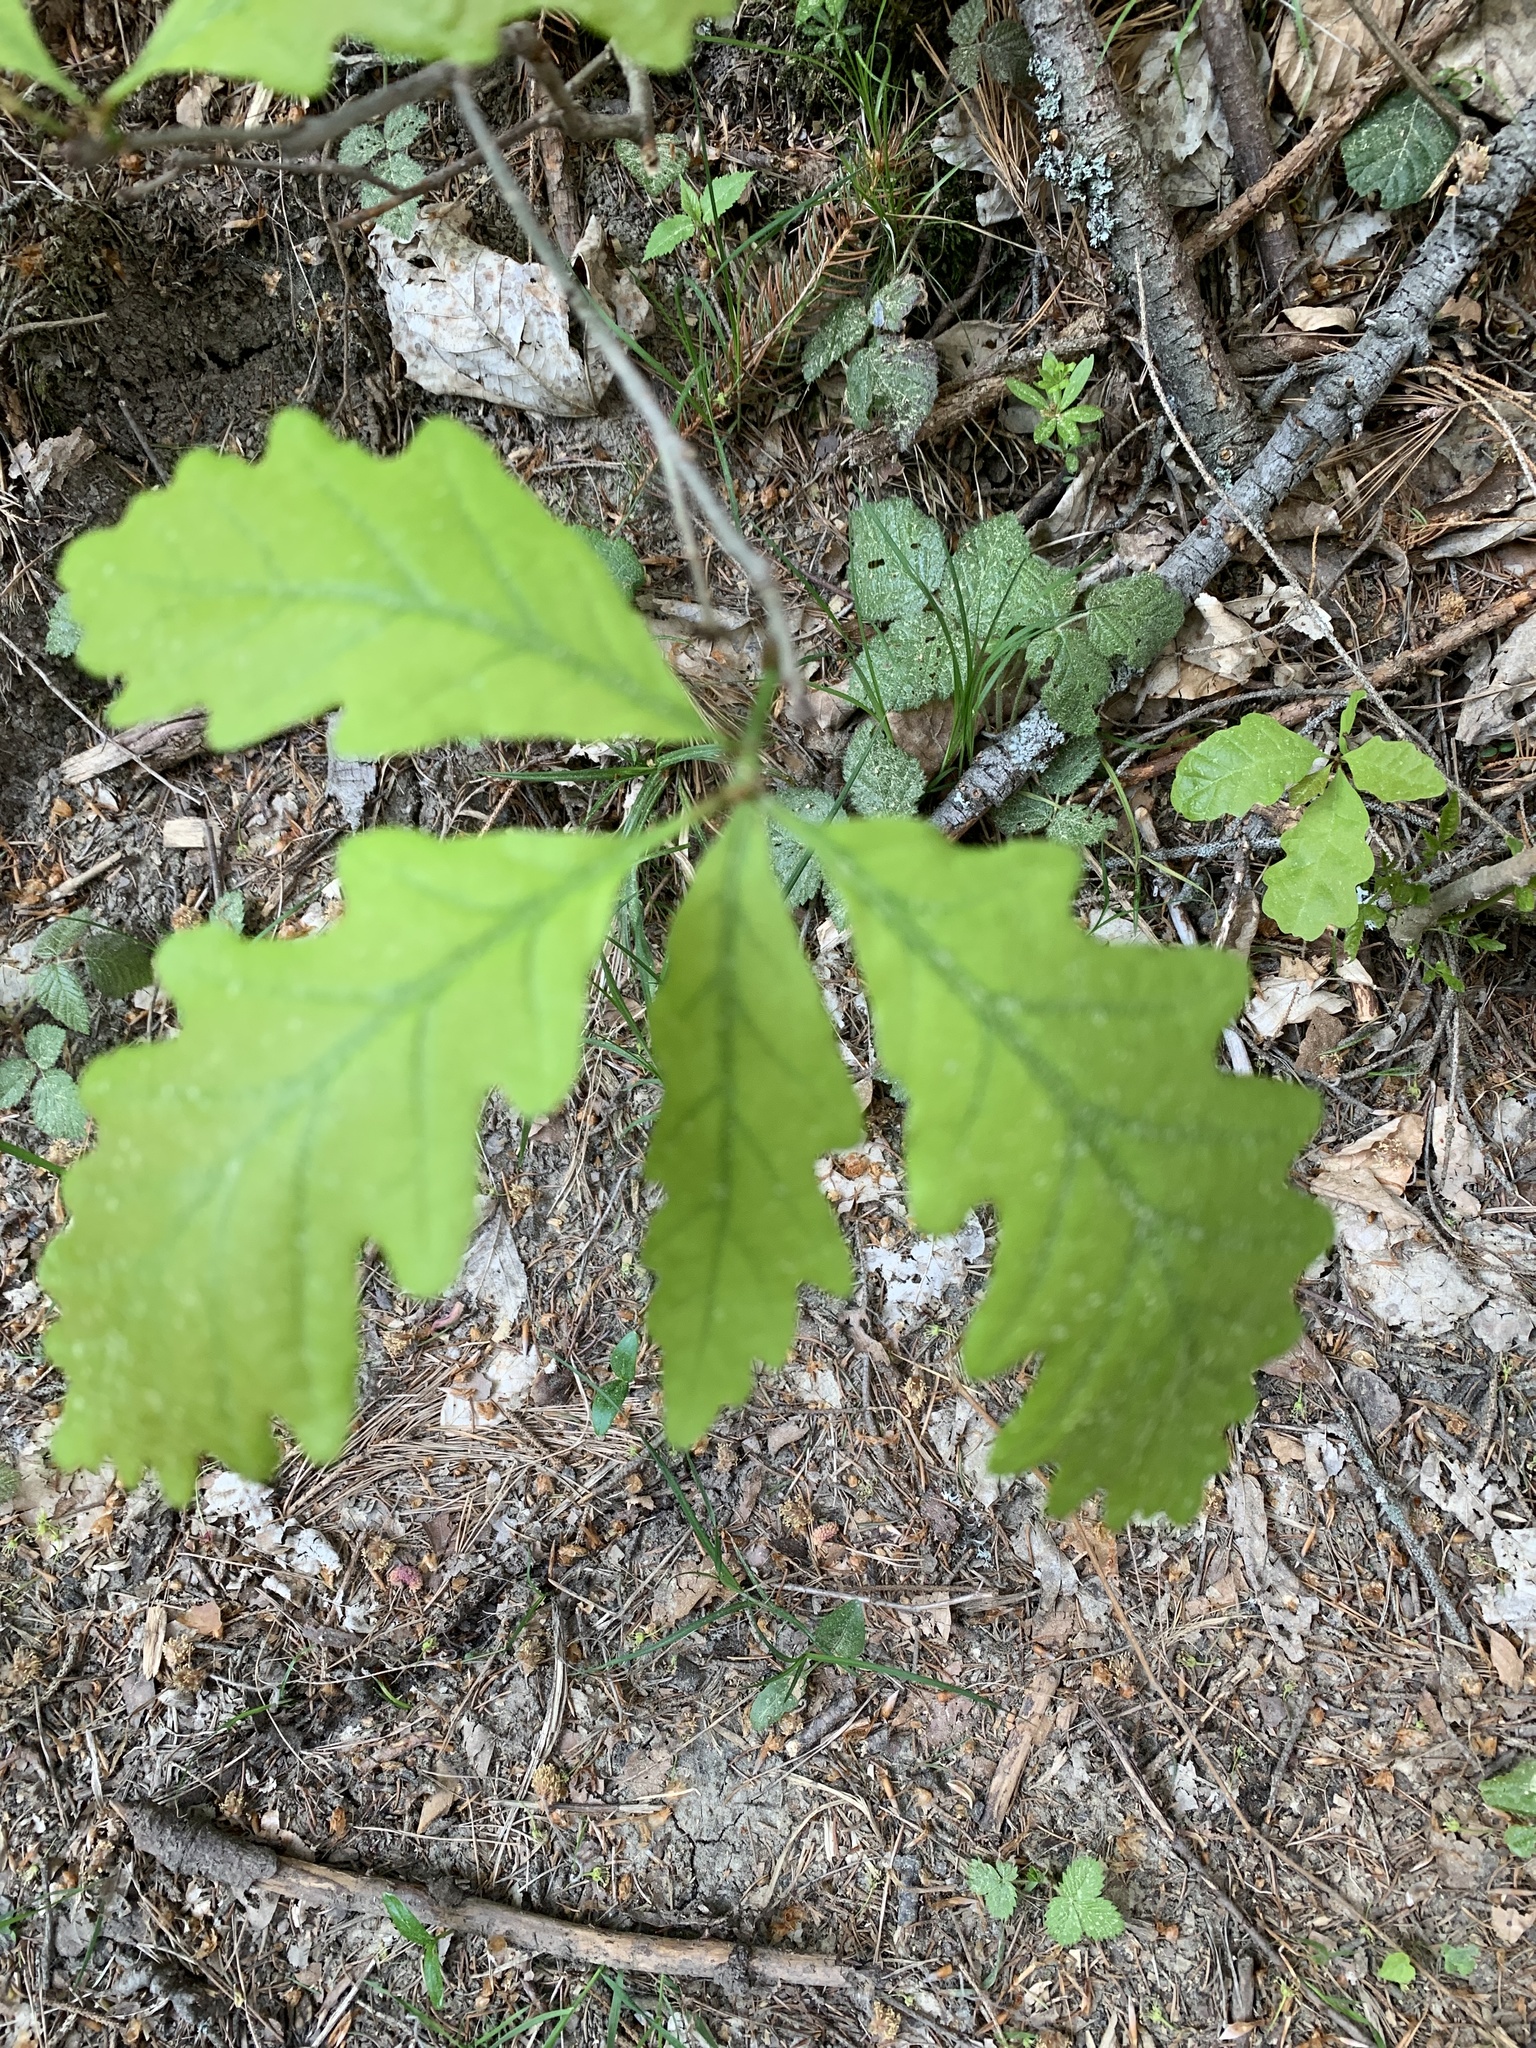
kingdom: Plantae
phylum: Tracheophyta
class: Magnoliopsida
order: Fagales
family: Fagaceae
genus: Quercus
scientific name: Quercus petraea
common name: Sessile oak
